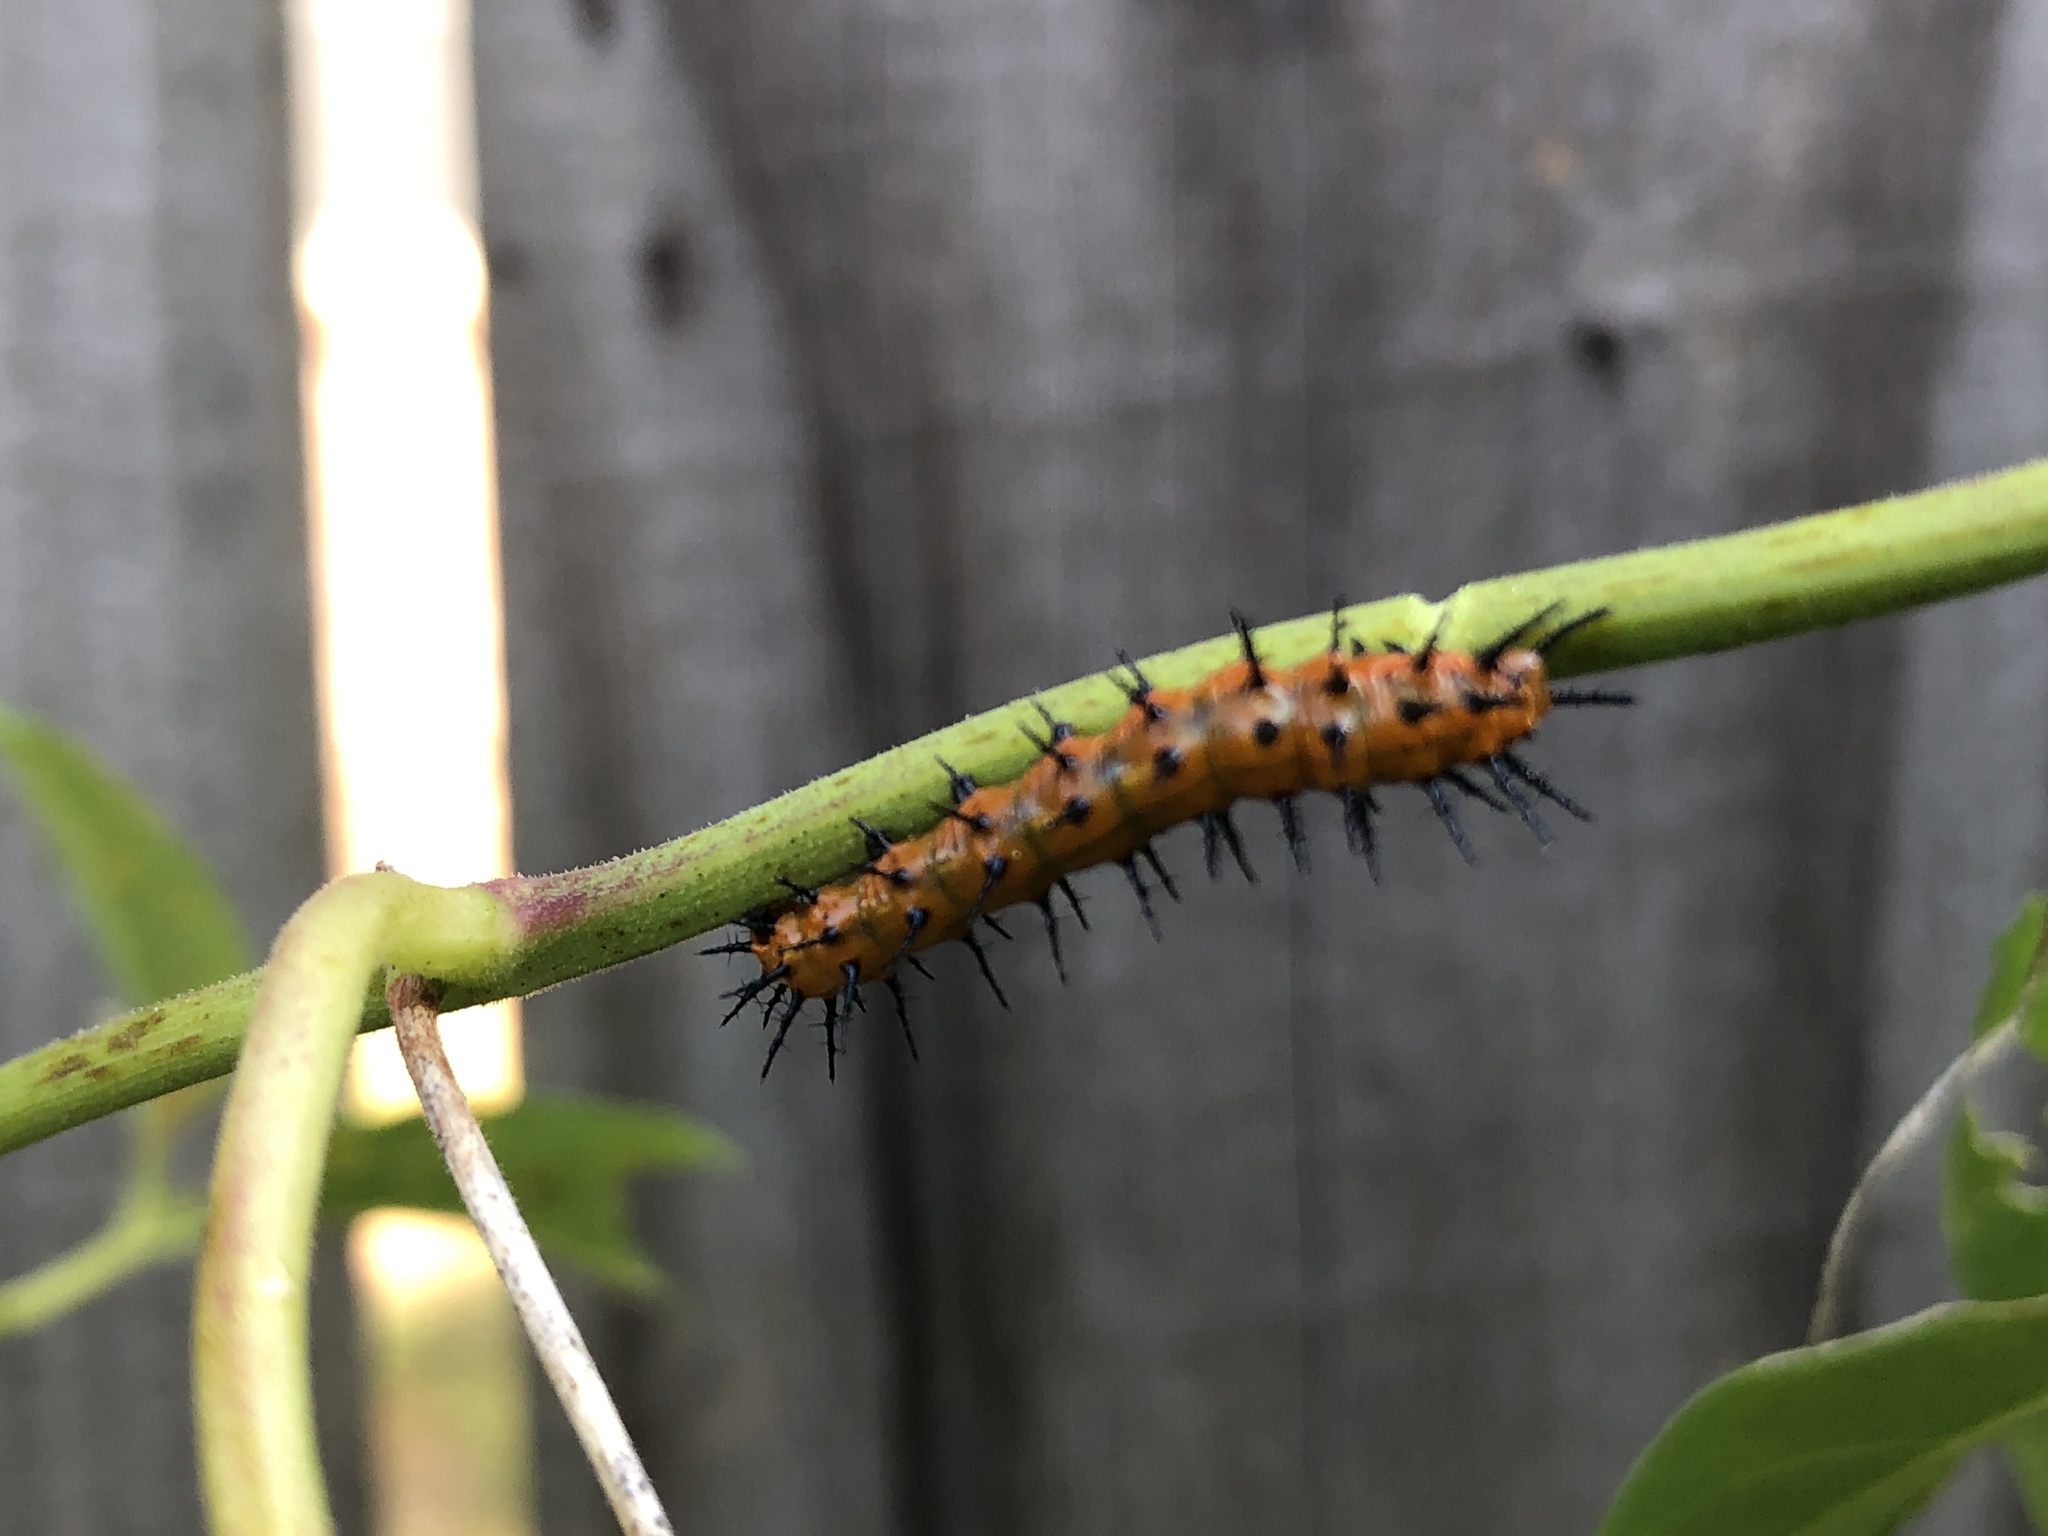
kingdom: Animalia
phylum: Arthropoda
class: Insecta
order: Lepidoptera
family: Nymphalidae
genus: Dione
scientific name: Dione vanillae
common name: Gulf fritillary
